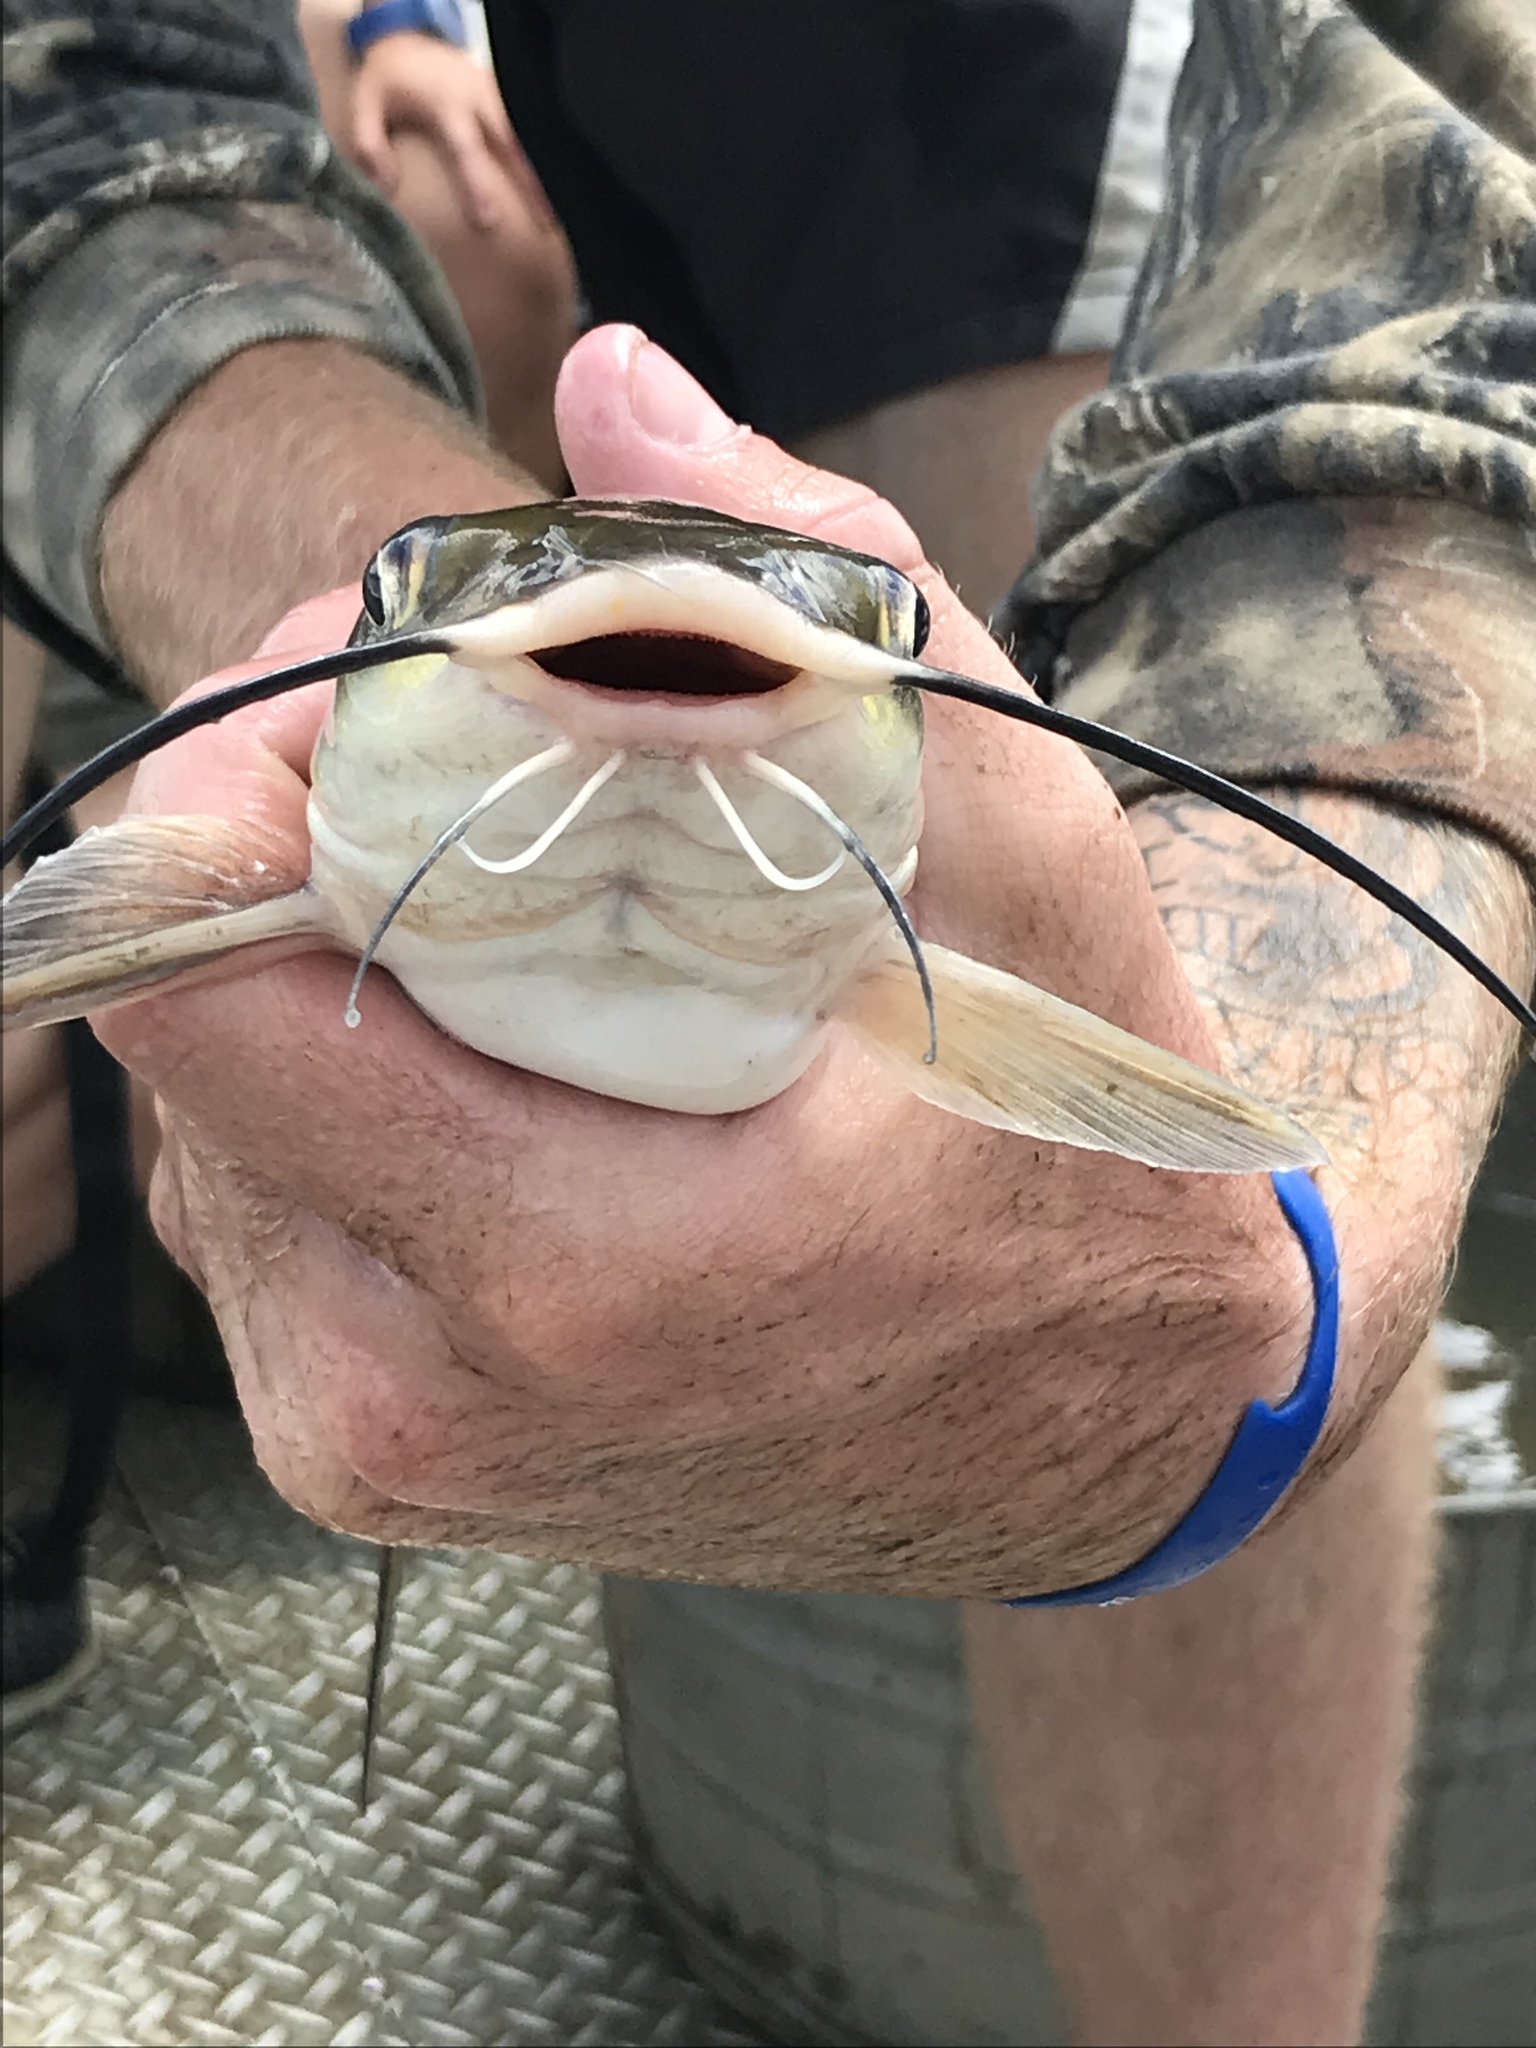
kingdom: Animalia
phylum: Chordata
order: Siluriformes
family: Ictaluridae
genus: Ictalurus
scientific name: Ictalurus punctatus
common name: Channel catfish
